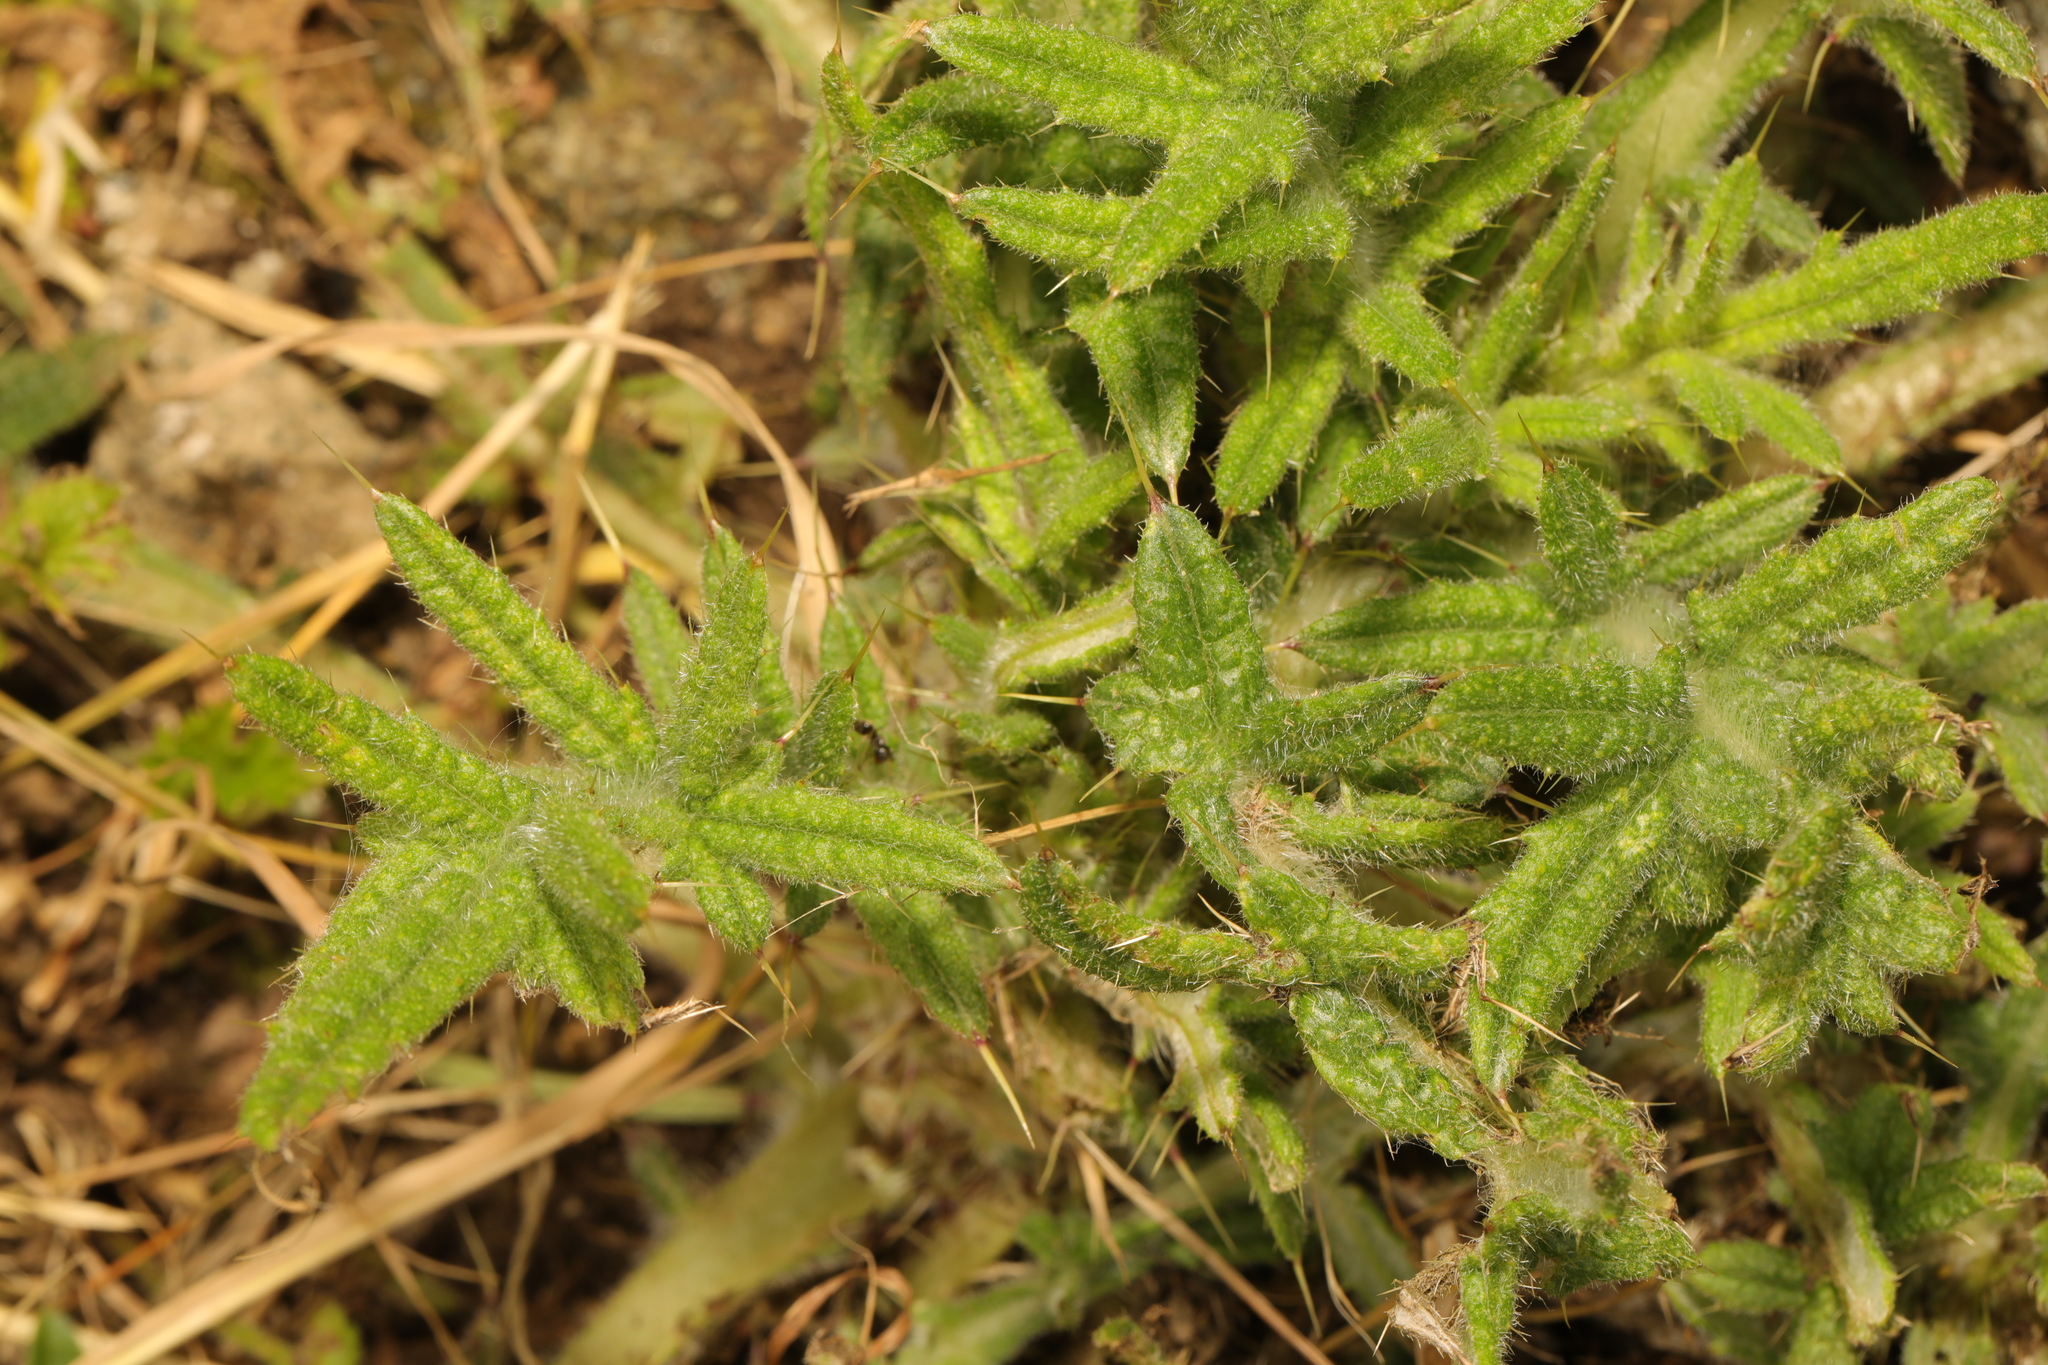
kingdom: Plantae
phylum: Tracheophyta
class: Magnoliopsida
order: Asterales
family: Asteraceae
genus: Cirsium
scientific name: Cirsium vulgare
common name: Bull thistle
